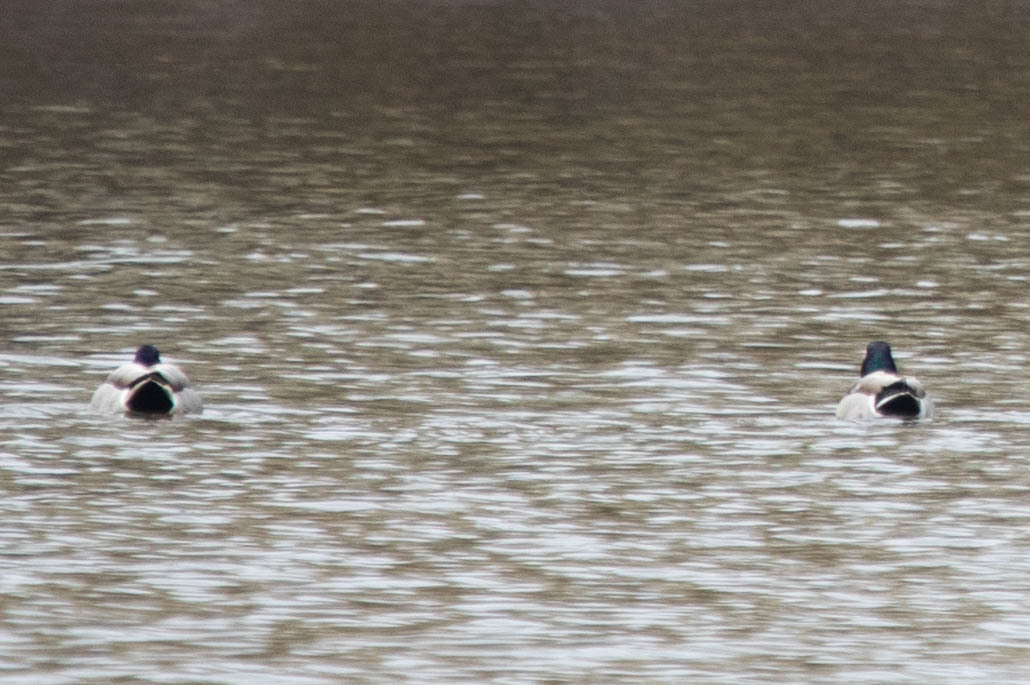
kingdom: Animalia
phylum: Chordata
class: Aves
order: Anseriformes
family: Anatidae
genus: Anas
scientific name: Anas platyrhynchos
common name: Mallard
